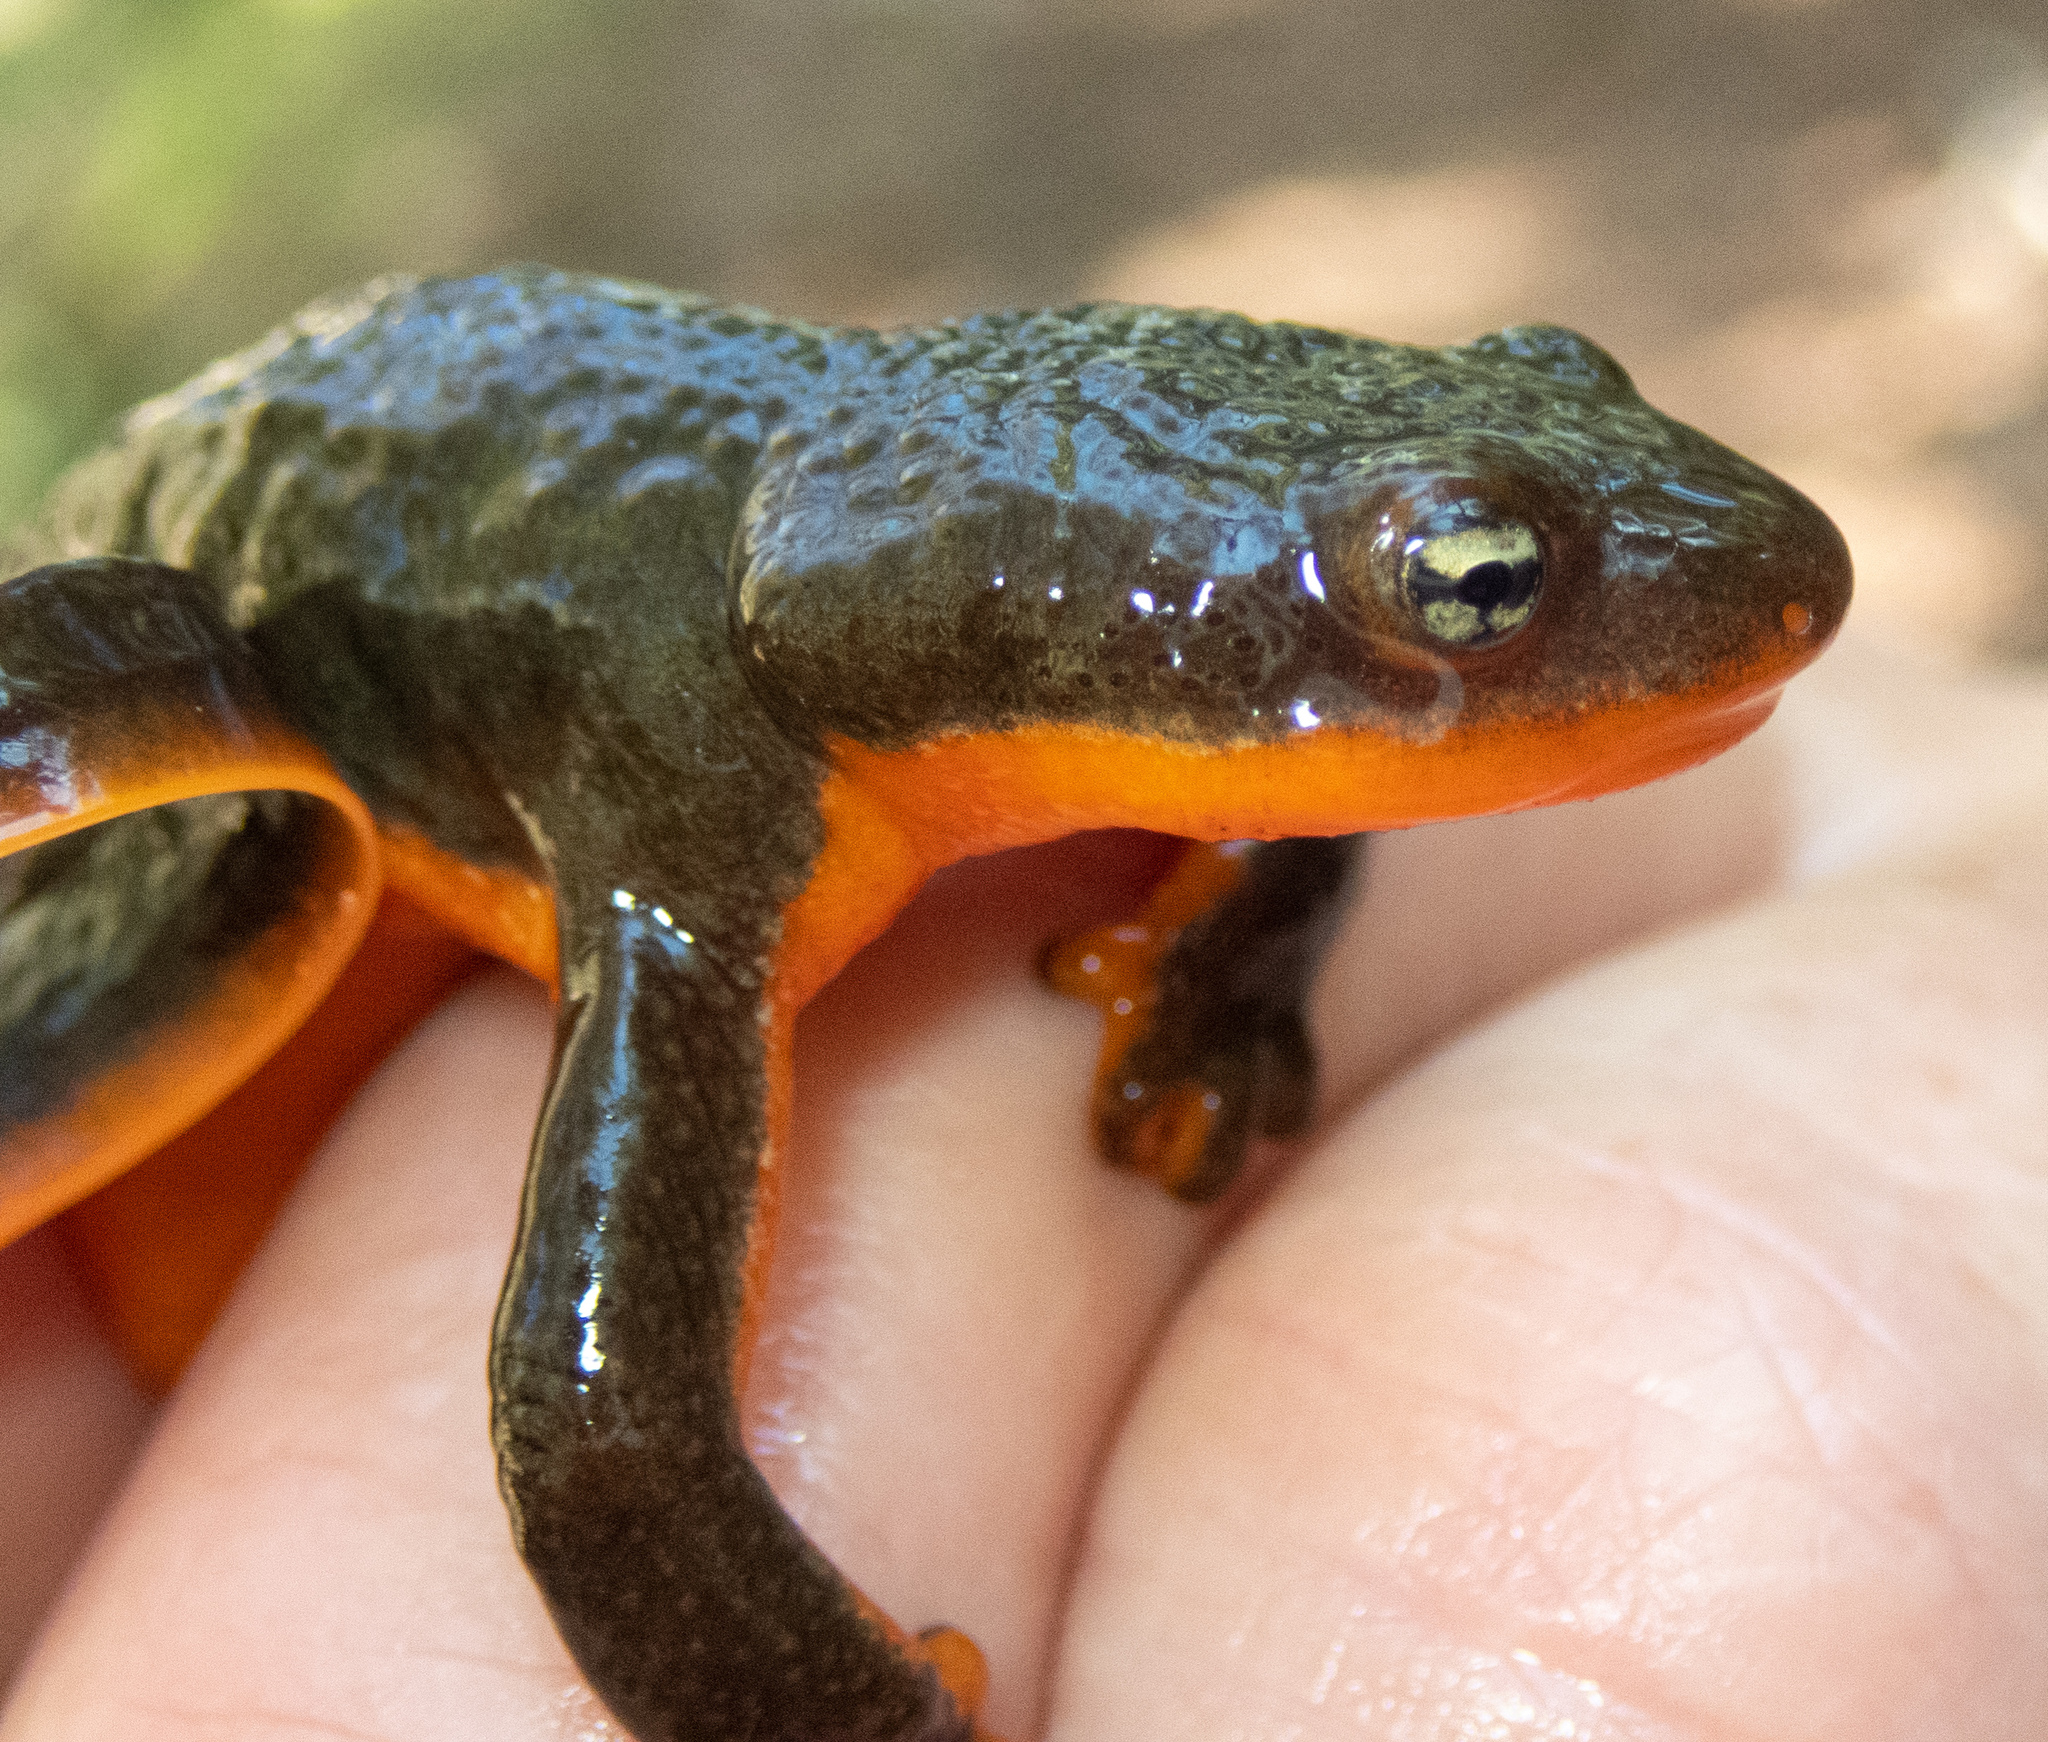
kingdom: Animalia
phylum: Chordata
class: Amphibia
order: Caudata
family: Salamandridae
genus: Taricha
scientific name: Taricha granulosa
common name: Roughskin newt
